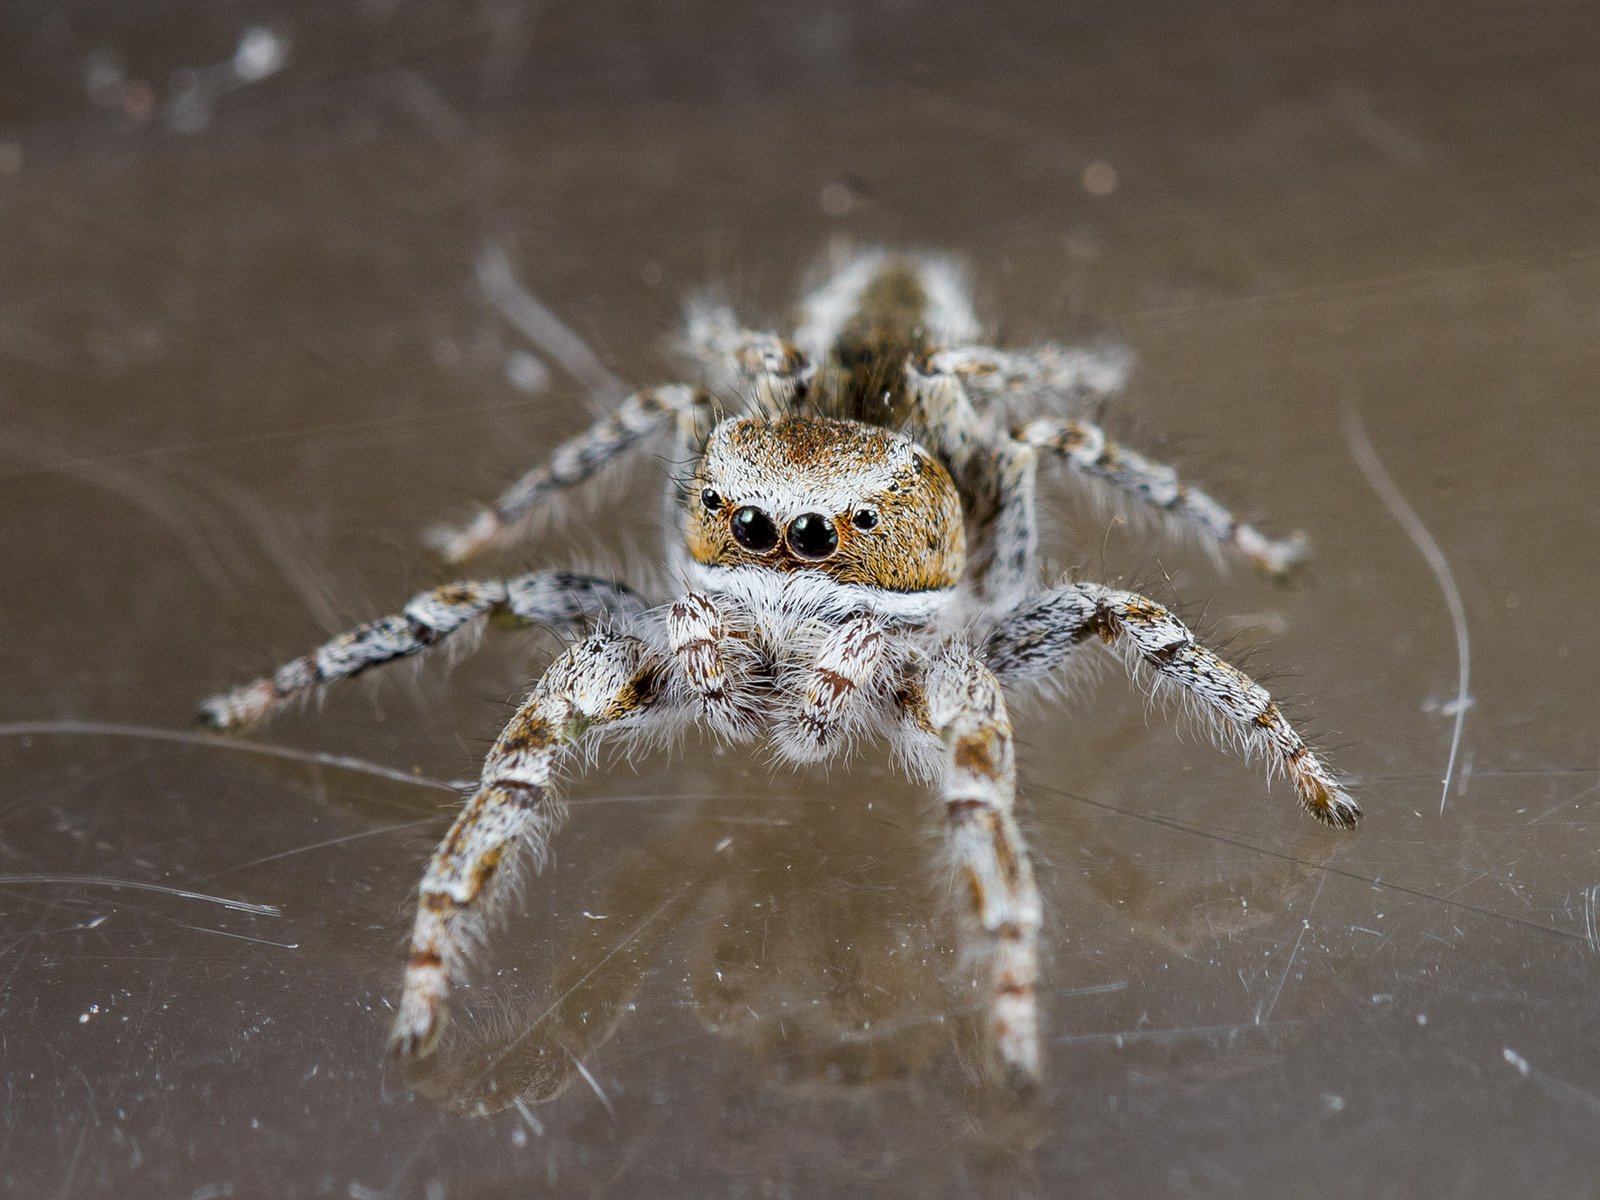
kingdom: Animalia
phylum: Arthropoda
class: Arachnida
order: Araneae
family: Salticidae
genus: Pseudomogrus
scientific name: Pseudomogrus vittatus
